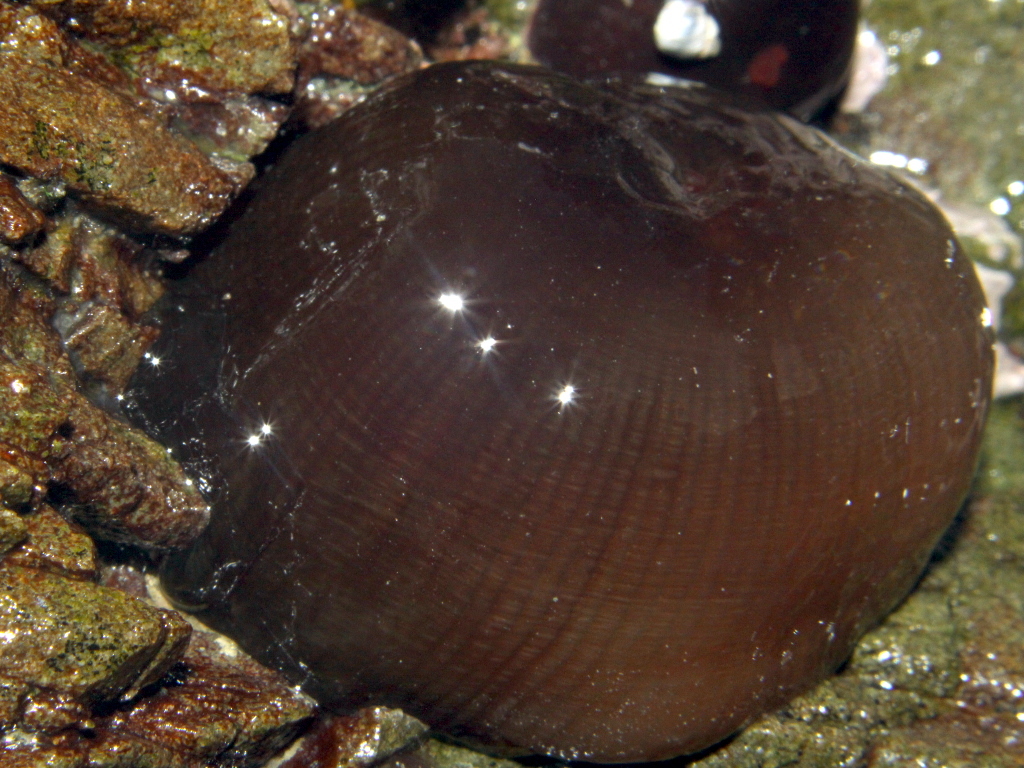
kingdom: Animalia
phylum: Cnidaria
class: Anthozoa
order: Actiniaria
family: Actiniidae
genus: Actinia
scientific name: Actinia tenebrosa
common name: Waratah anemone
